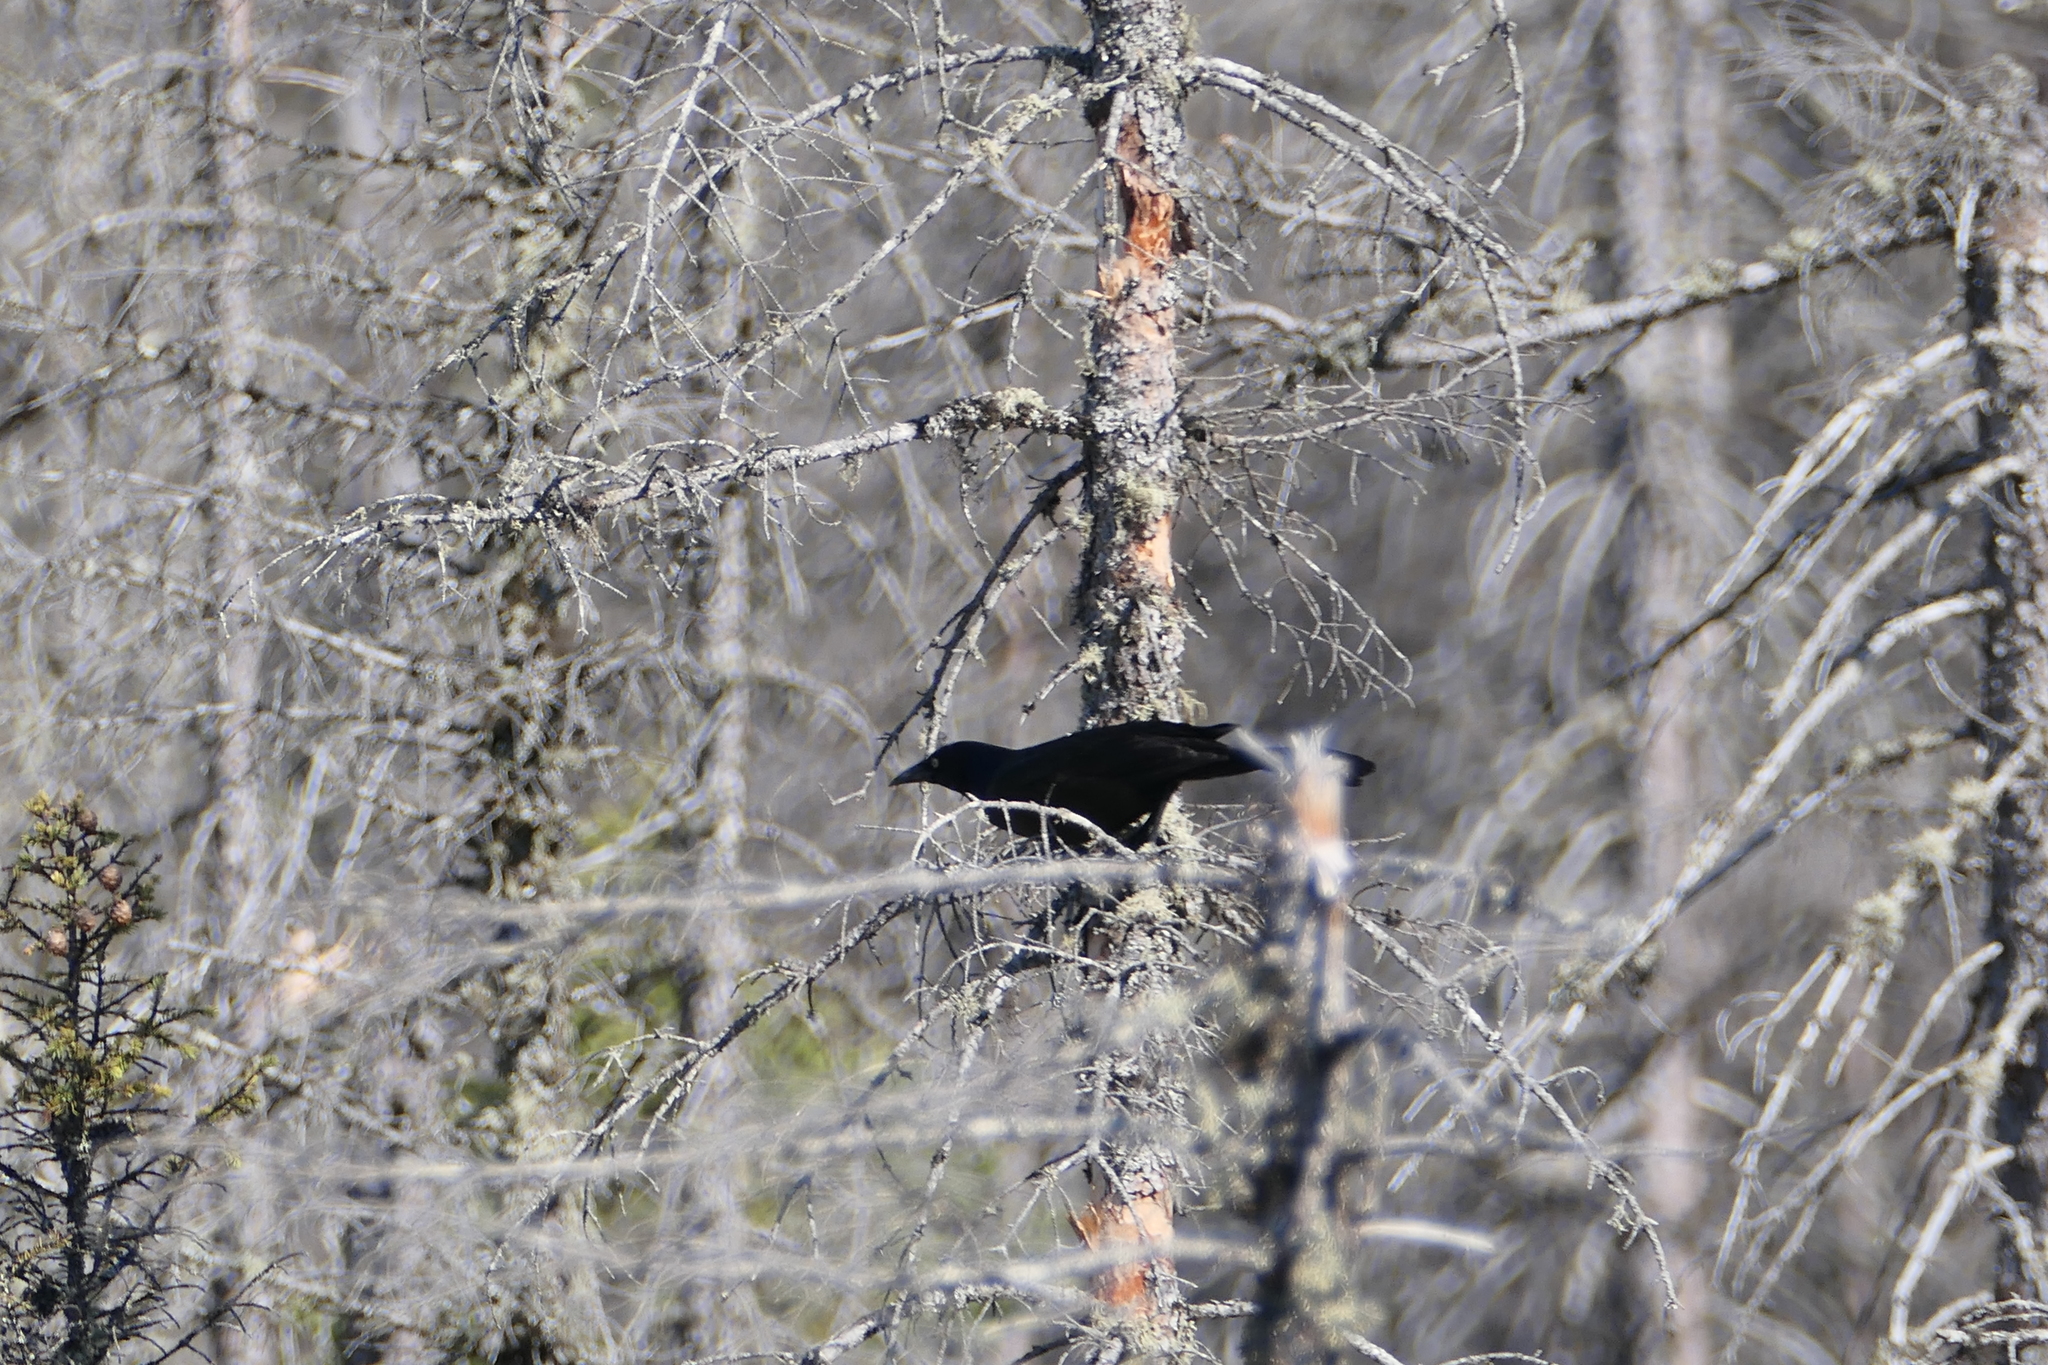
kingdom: Animalia
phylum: Chordata
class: Aves
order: Passeriformes
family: Icteridae
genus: Quiscalus
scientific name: Quiscalus quiscula
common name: Common grackle
